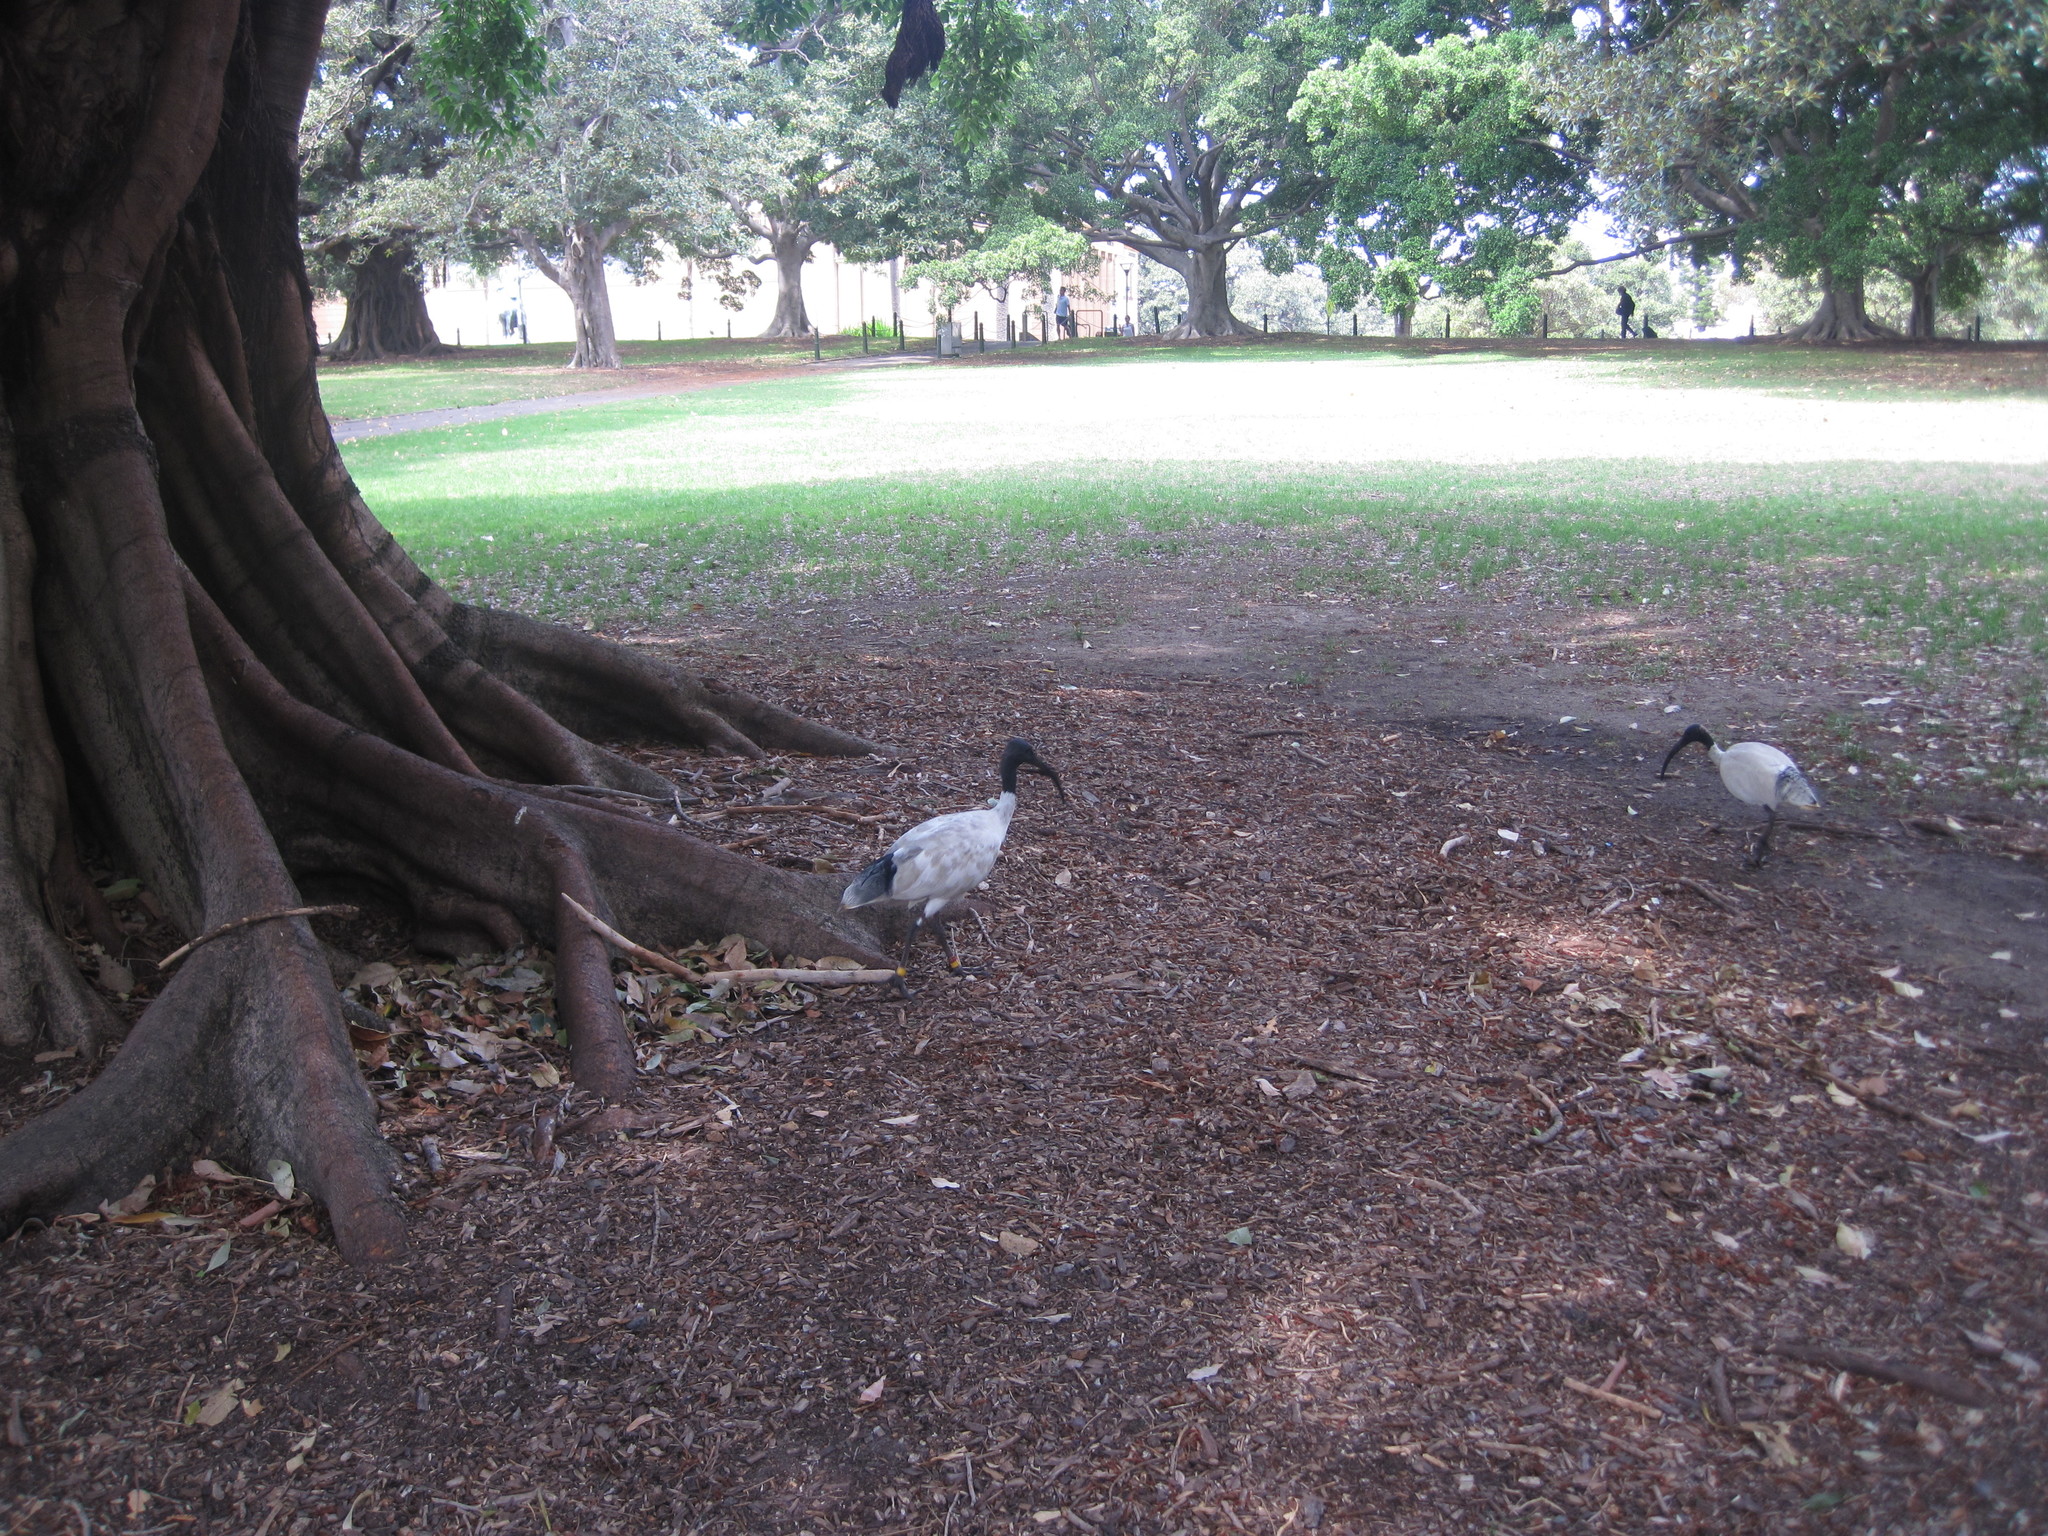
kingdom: Animalia
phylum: Chordata
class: Aves
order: Pelecaniformes
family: Threskiornithidae
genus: Threskiornis
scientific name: Threskiornis molucca
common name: Australian white ibis
